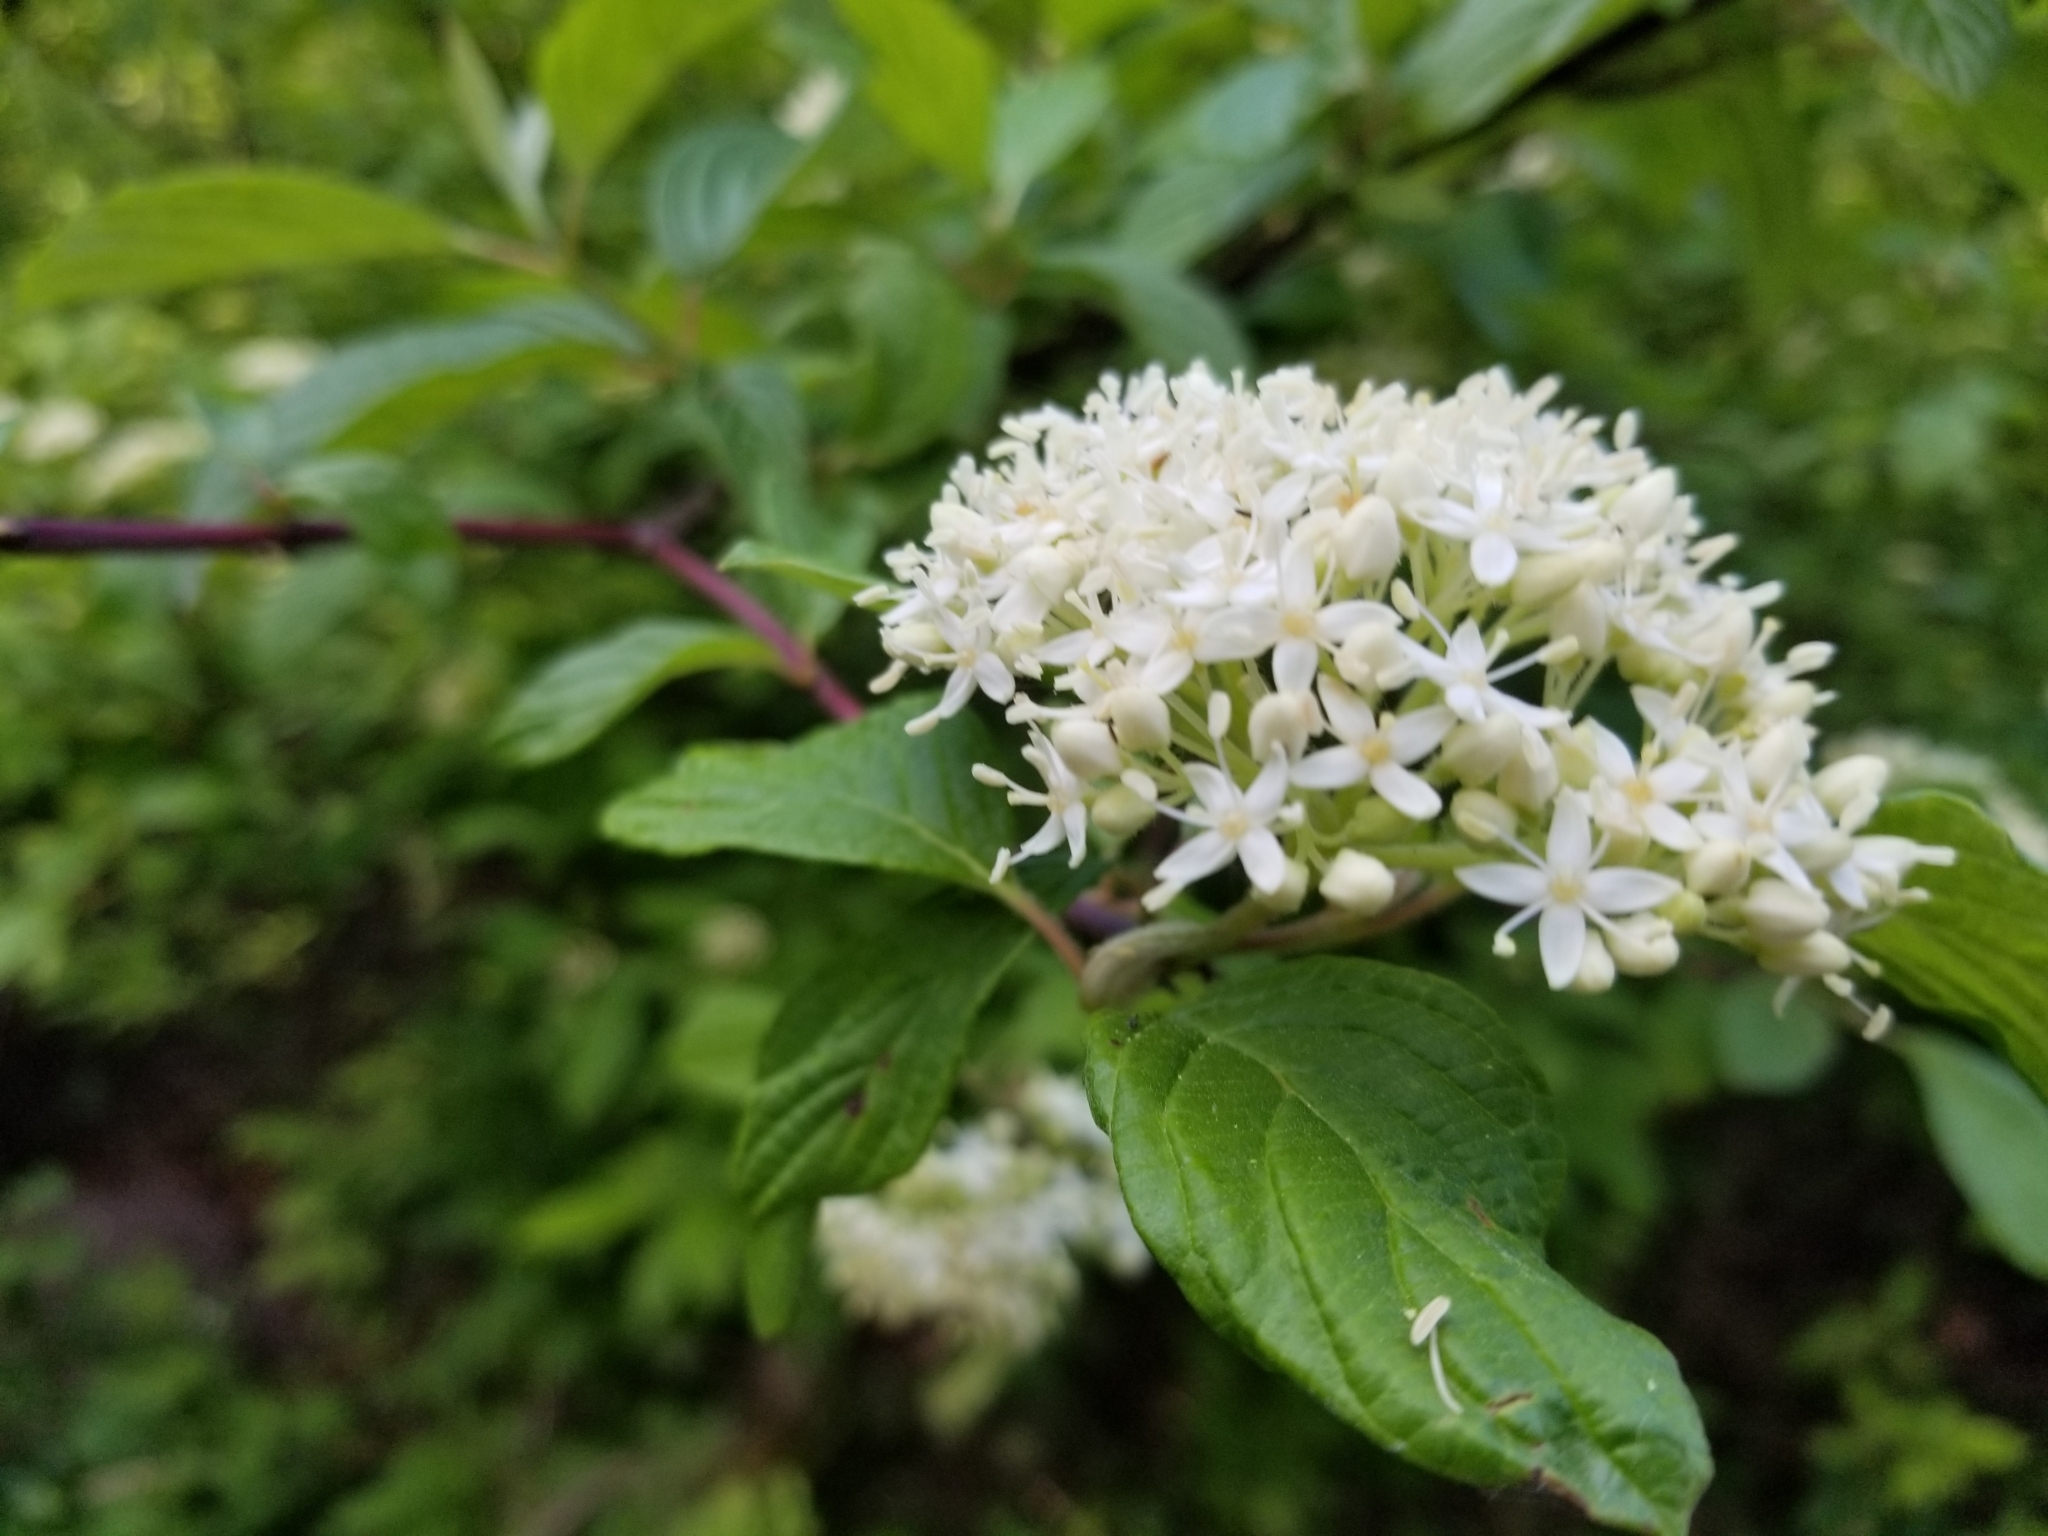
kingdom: Plantae
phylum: Tracheophyta
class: Magnoliopsida
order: Cornales
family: Cornaceae
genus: Cornus
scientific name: Cornus sericea
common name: Red-osier dogwood
